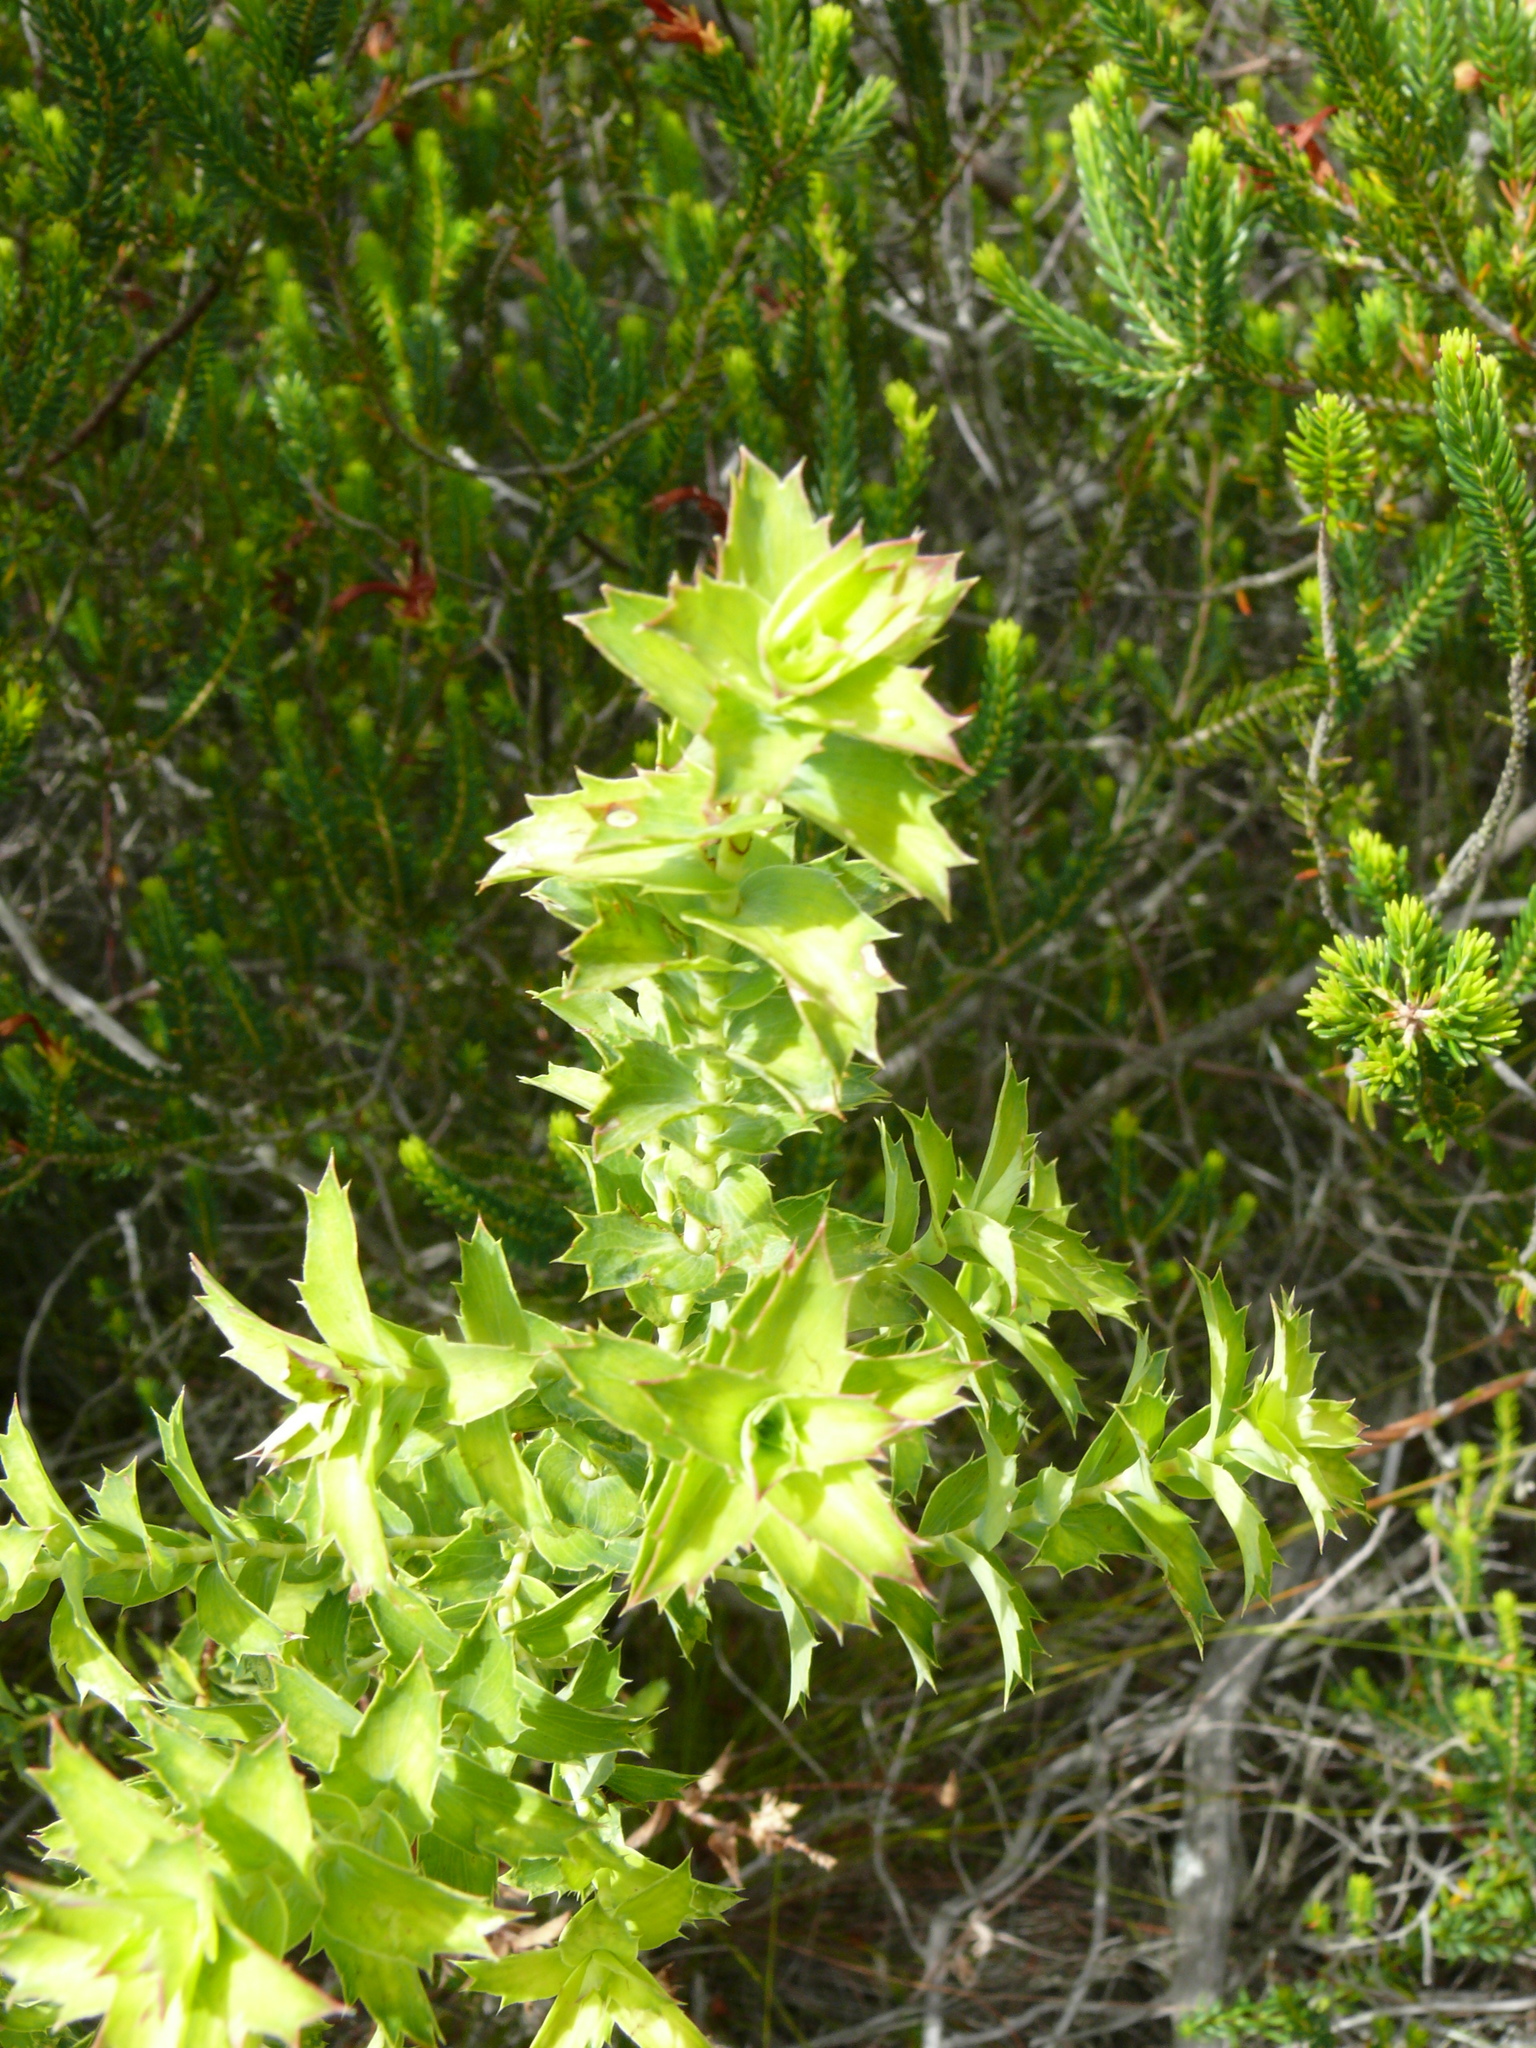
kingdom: Plantae
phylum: Tracheophyta
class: Magnoliopsida
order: Rosales
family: Rosaceae
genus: Cliffortia
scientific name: Cliffortia ilicifolia
